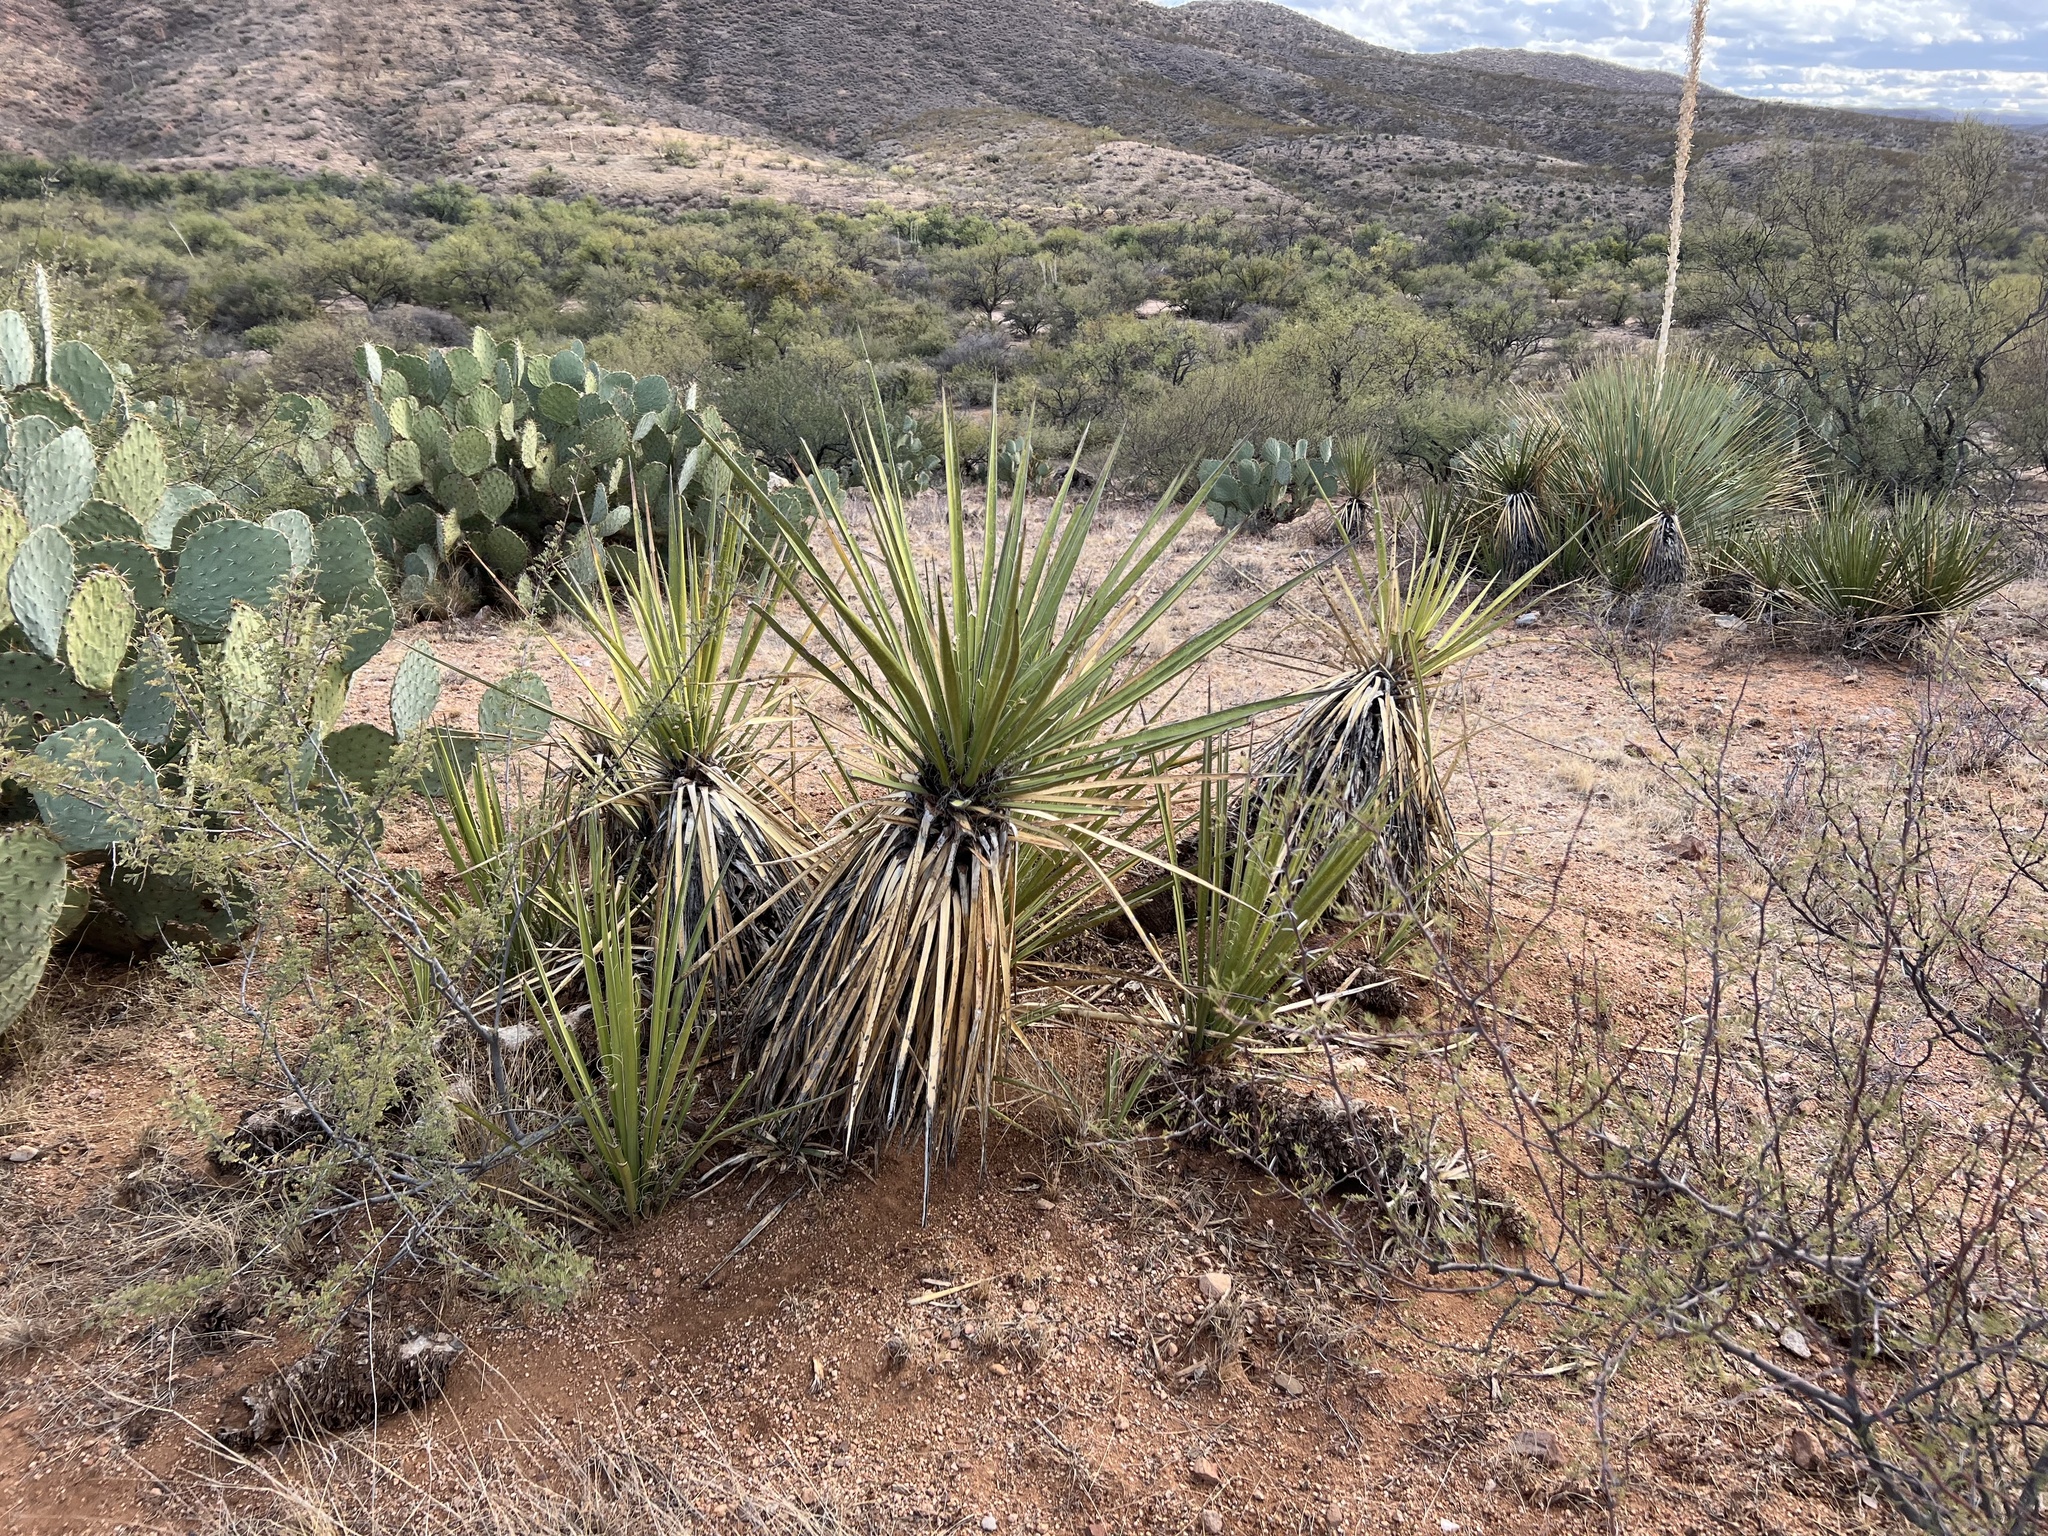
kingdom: Plantae
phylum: Tracheophyta
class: Liliopsida
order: Asparagales
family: Asparagaceae
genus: Yucca
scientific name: Yucca baccata
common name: Banana yucca
